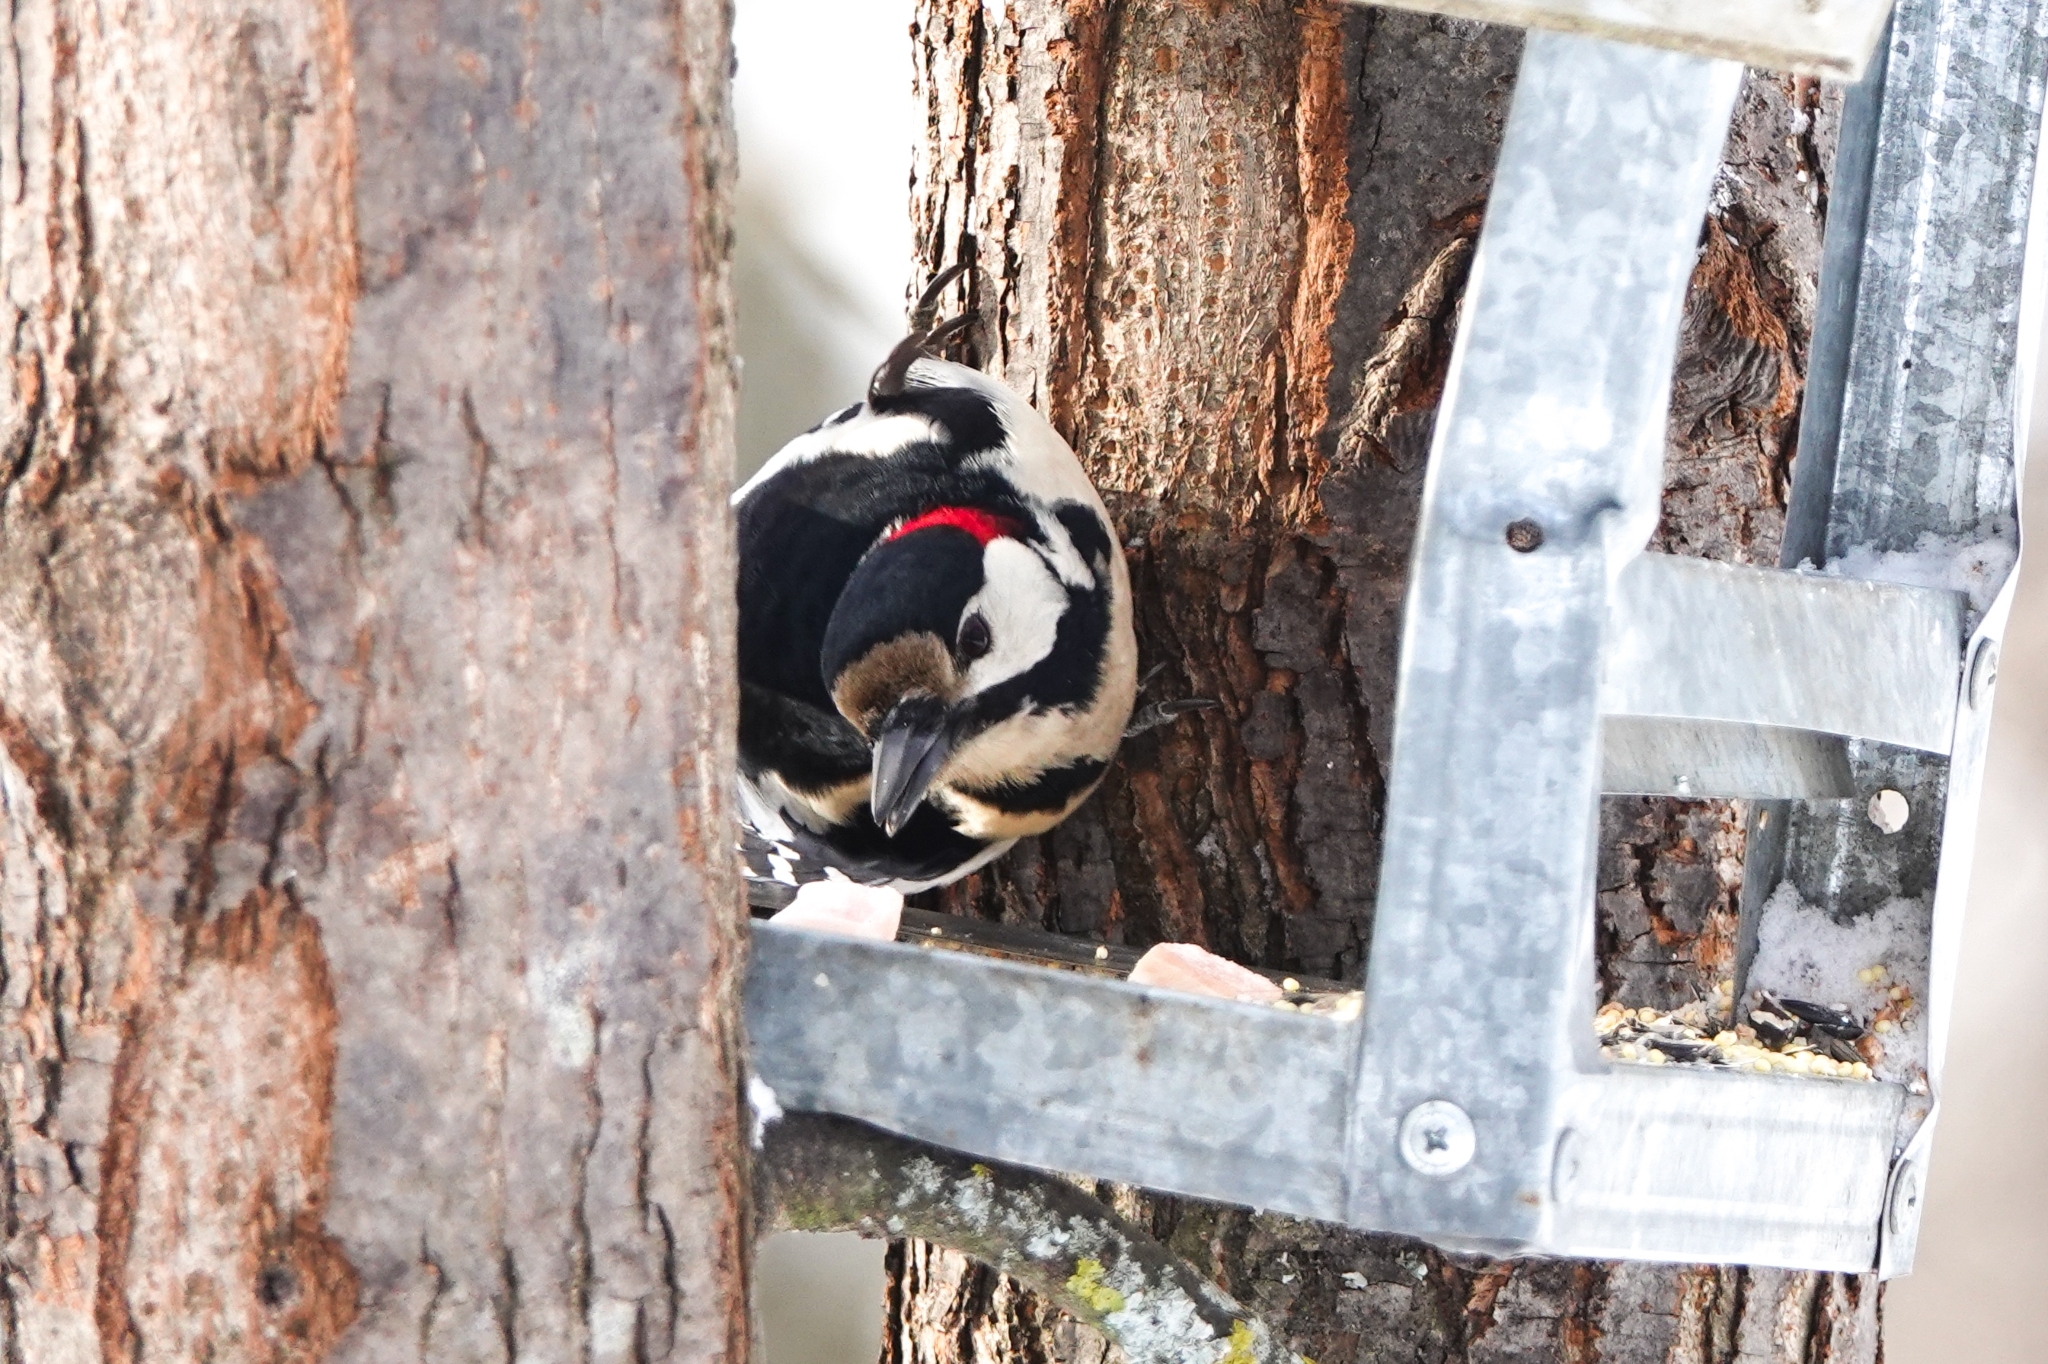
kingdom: Animalia
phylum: Chordata
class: Aves
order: Piciformes
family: Picidae
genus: Dendrocopos
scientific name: Dendrocopos major
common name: Great spotted woodpecker
